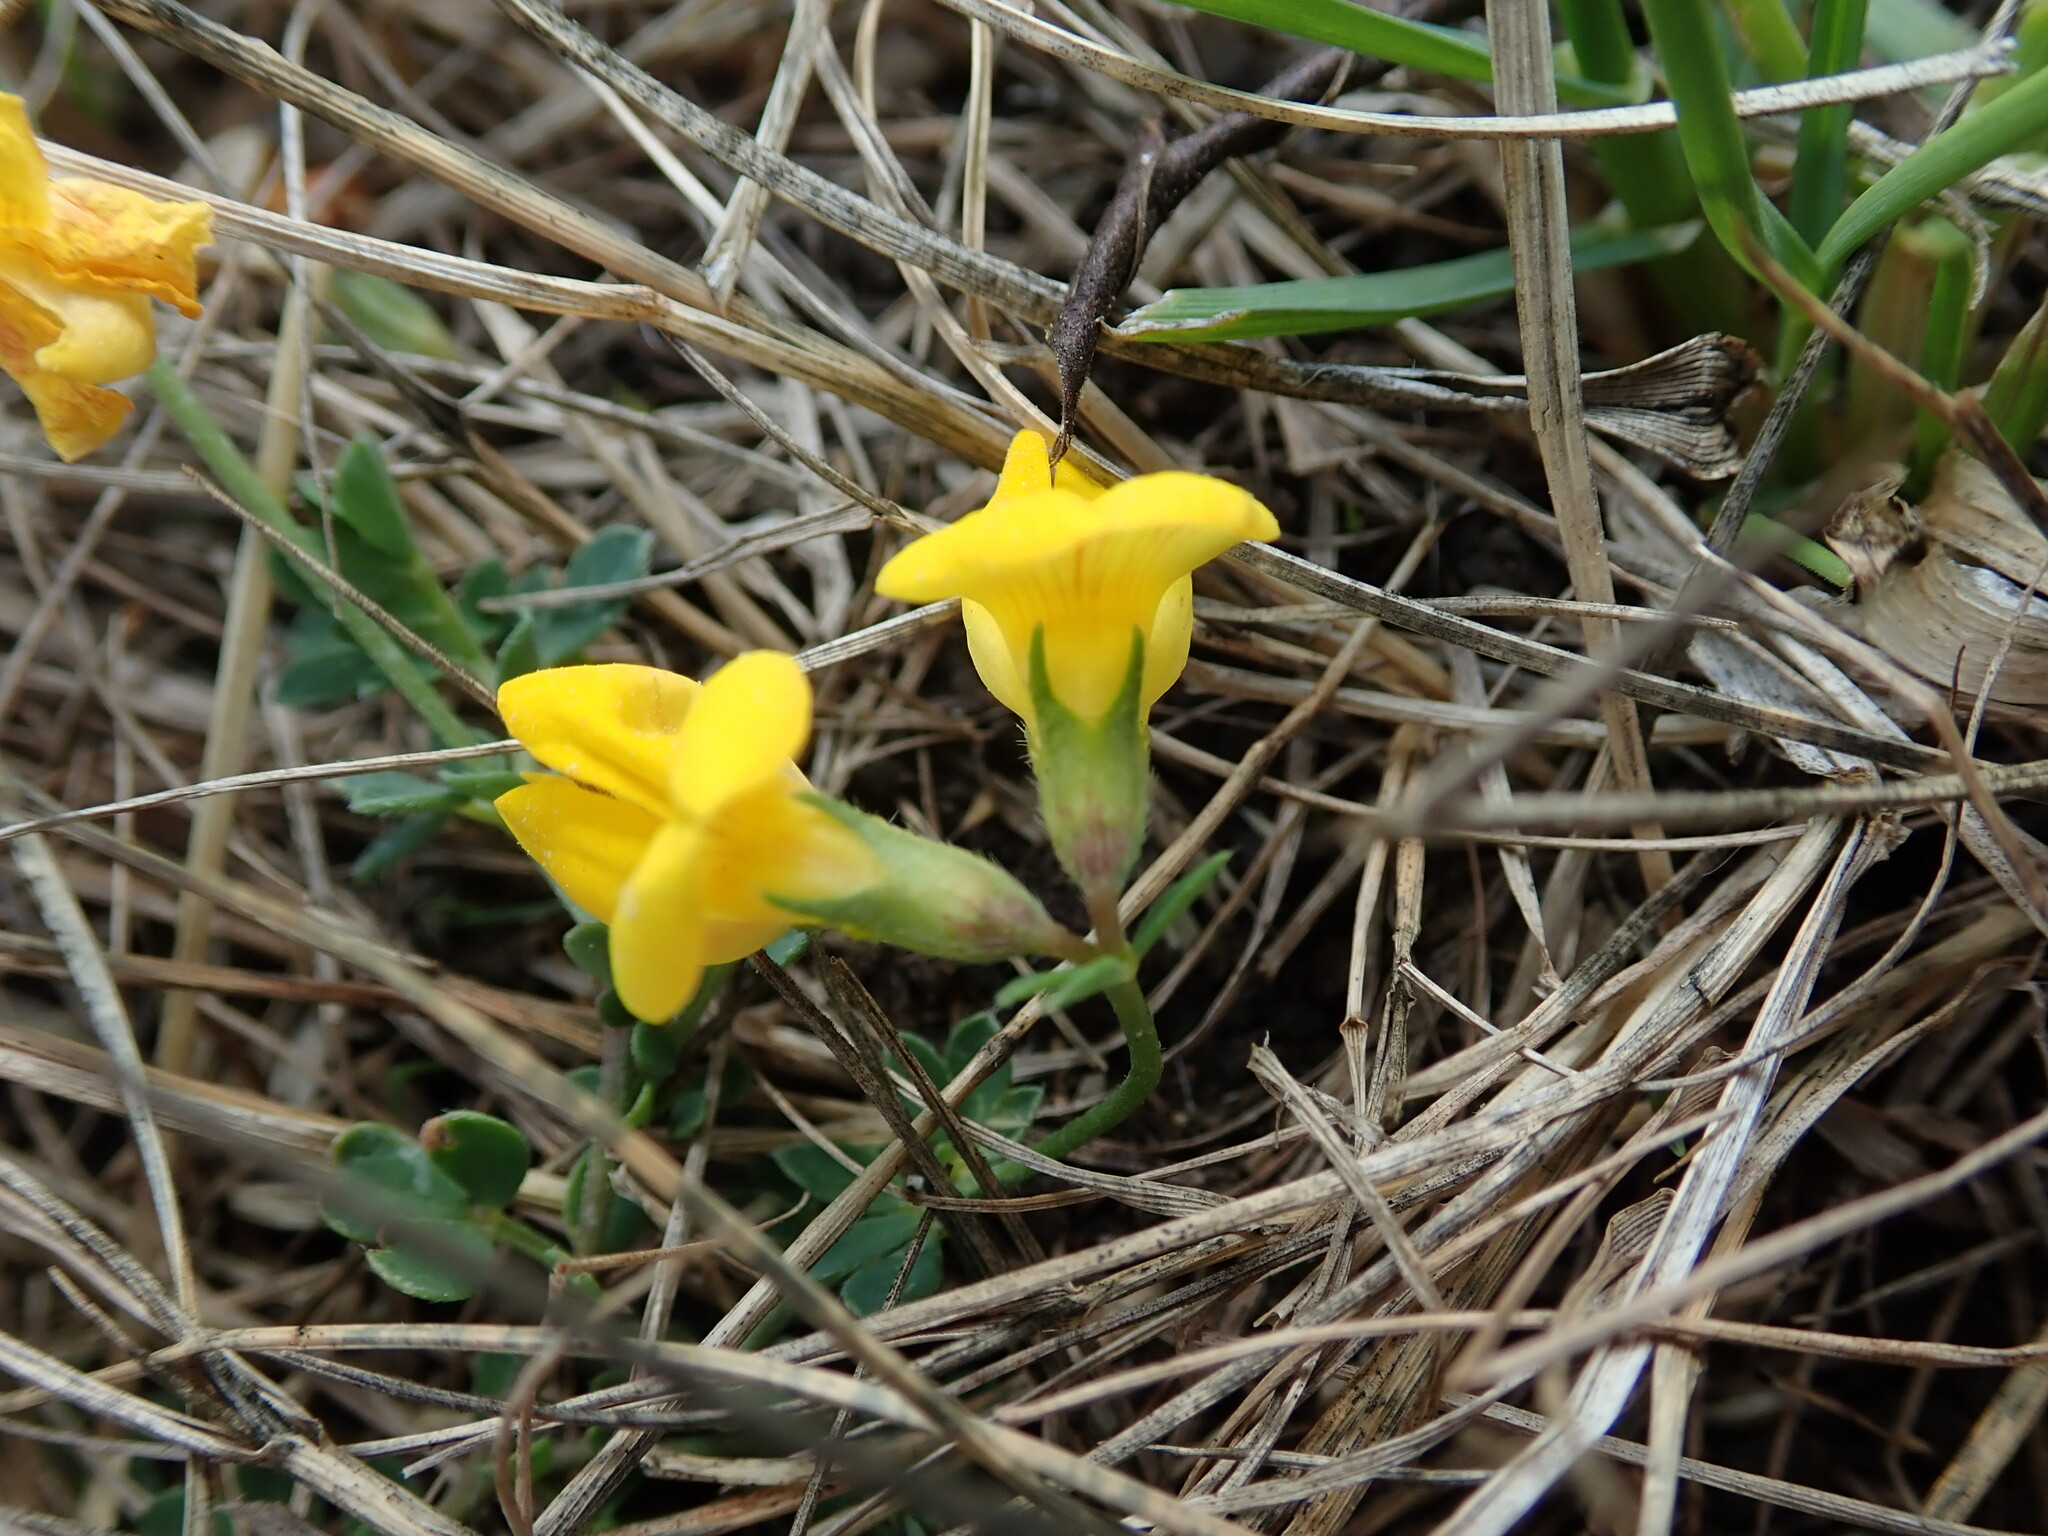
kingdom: Plantae
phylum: Tracheophyta
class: Magnoliopsida
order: Fabales
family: Fabaceae
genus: Lotus
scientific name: Lotus corniculatus
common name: Common bird's-foot-trefoil
